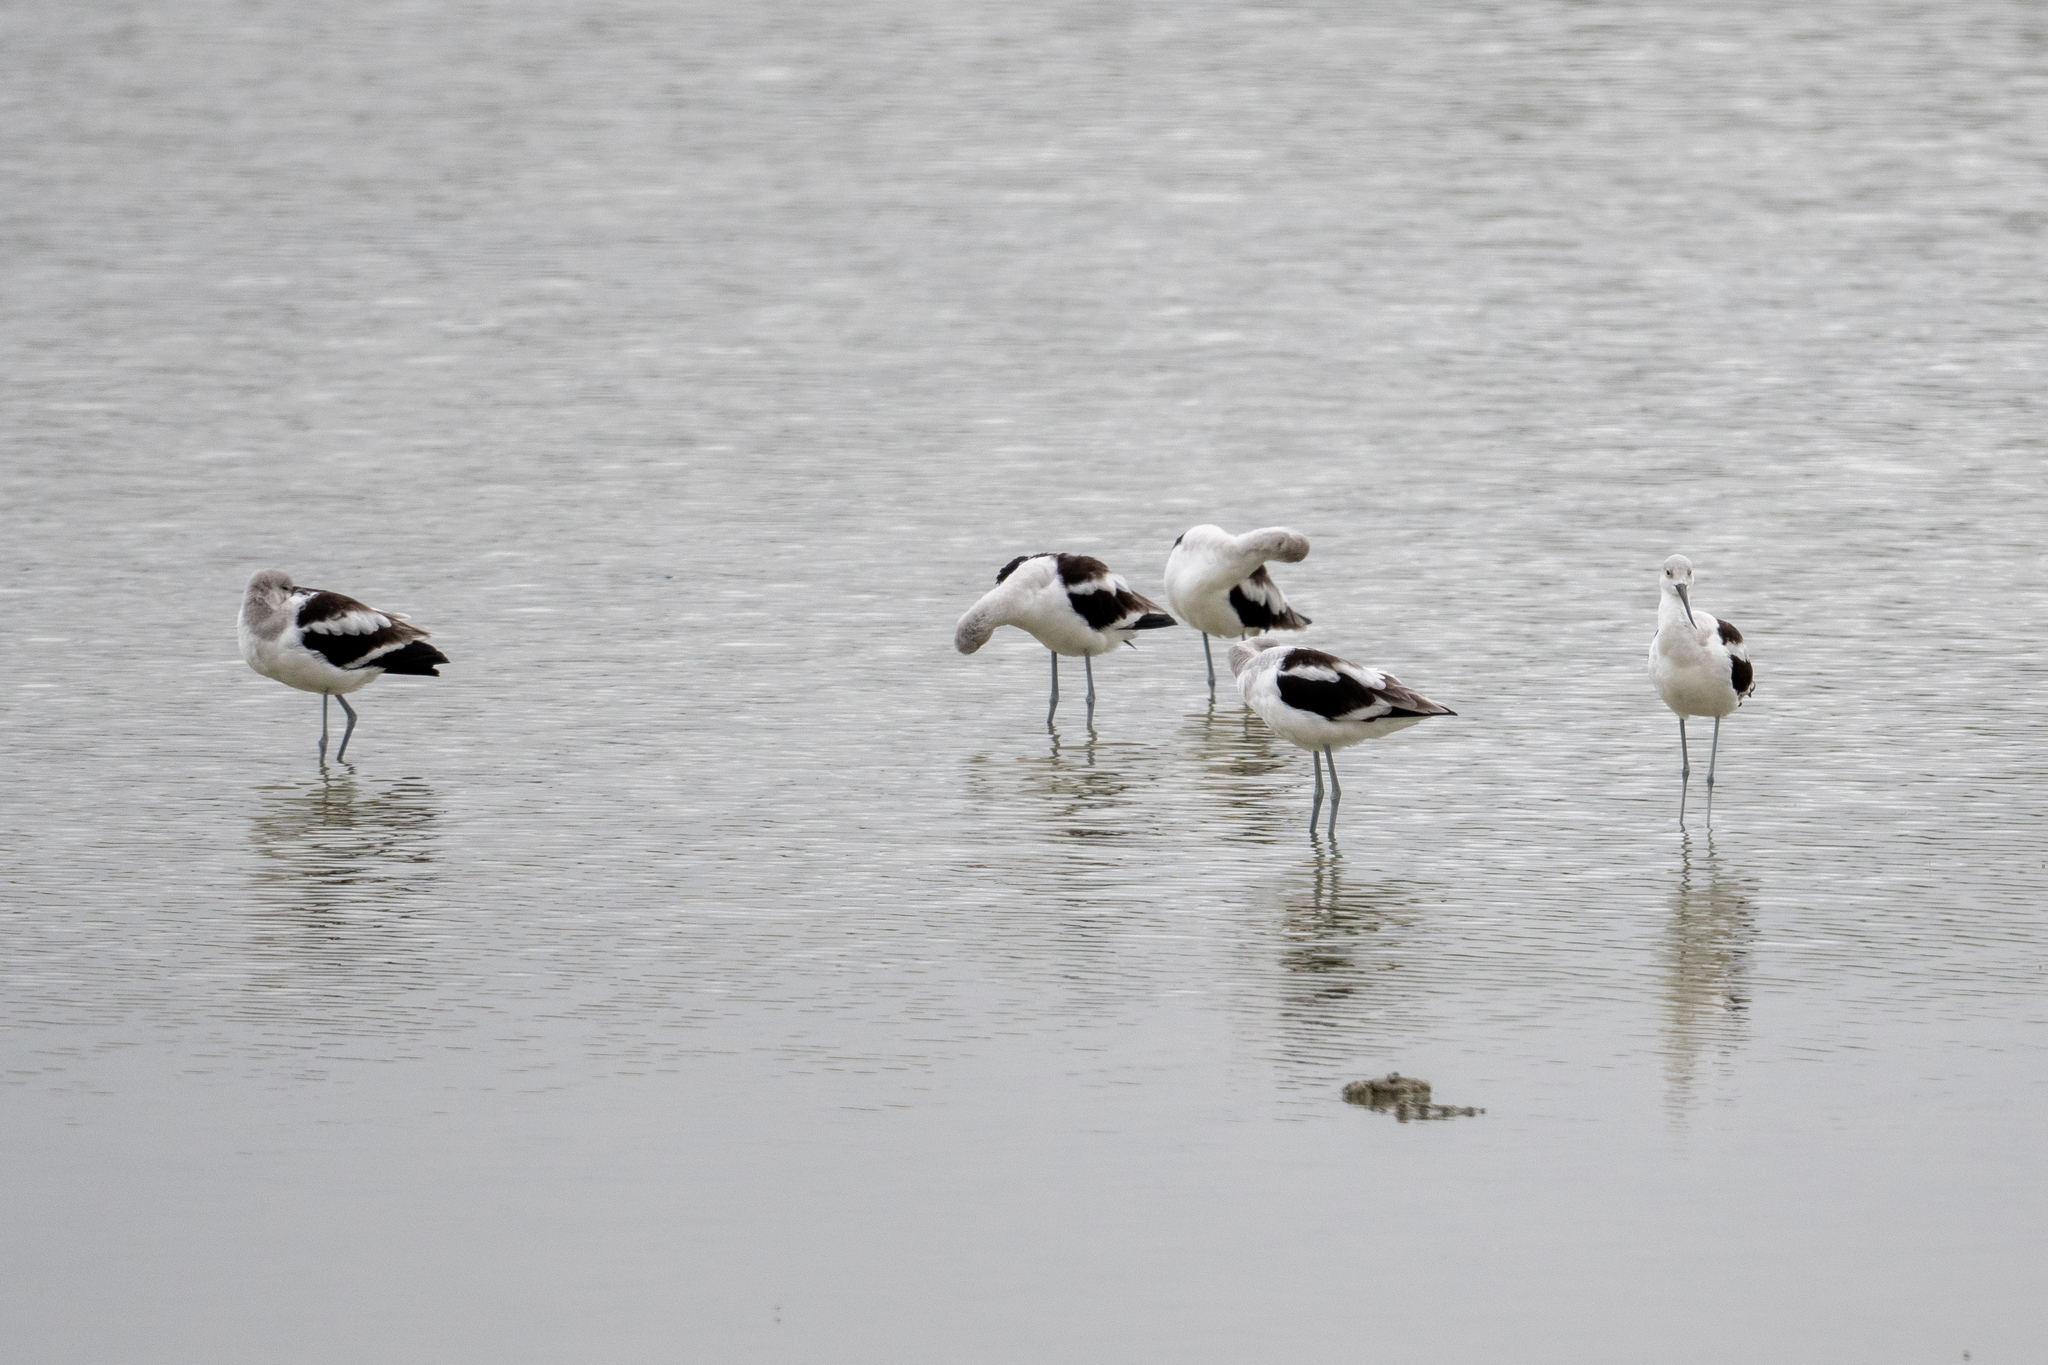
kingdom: Animalia
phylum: Chordata
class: Aves
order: Charadriiformes
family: Recurvirostridae
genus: Recurvirostra
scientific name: Recurvirostra americana
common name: American avocet
